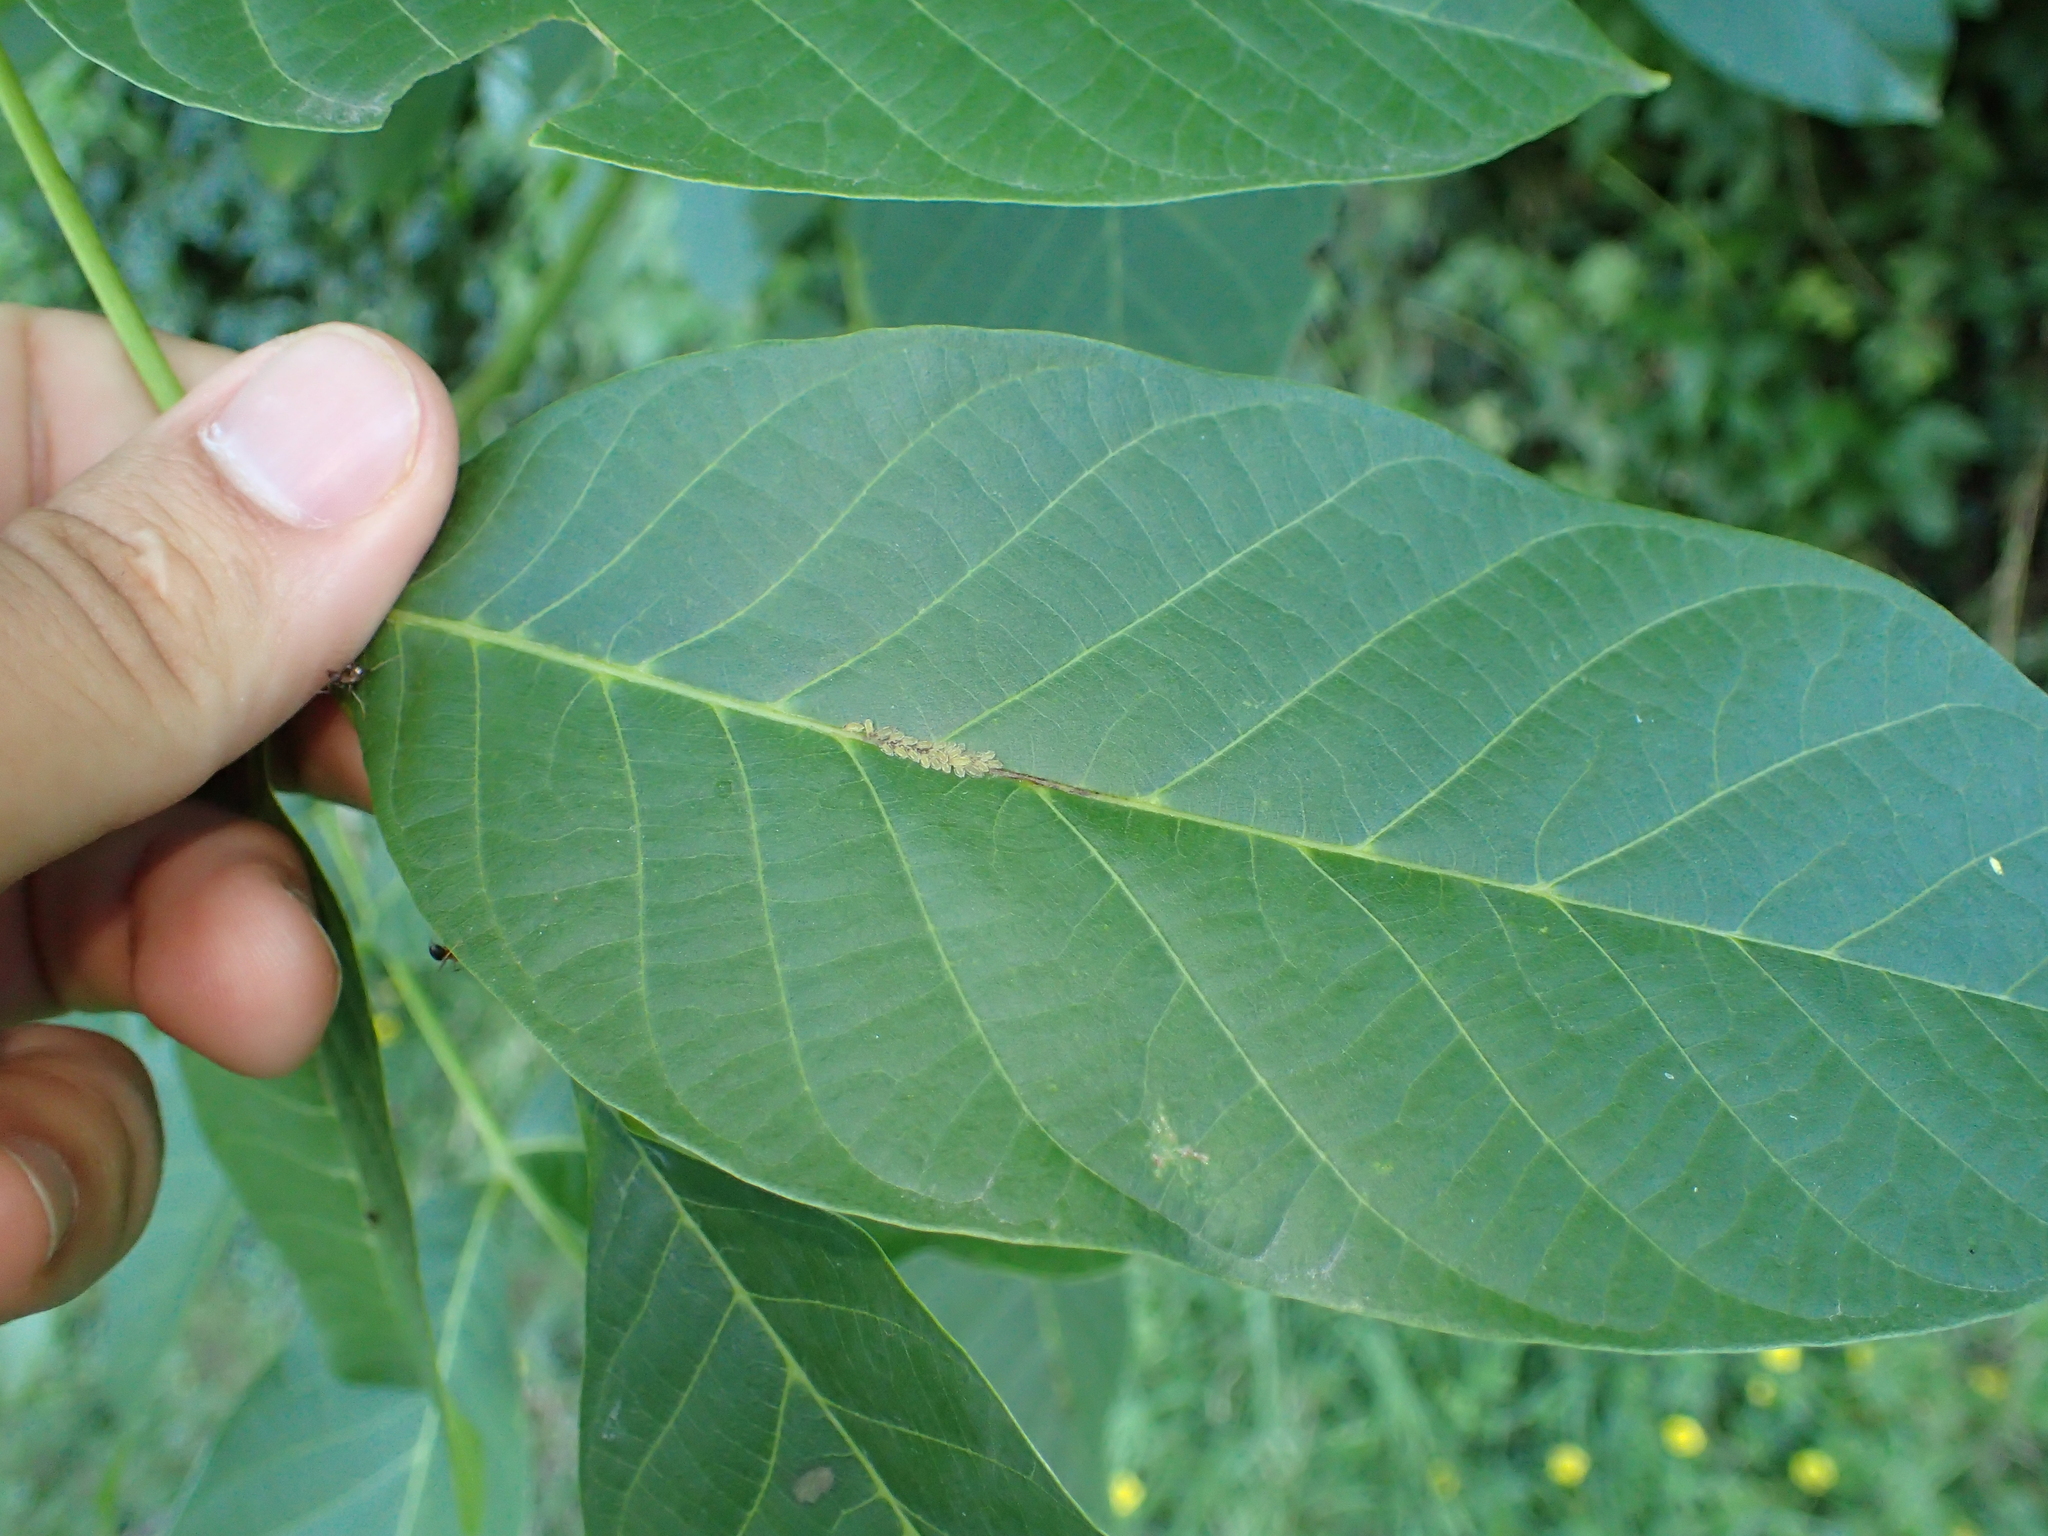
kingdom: Animalia
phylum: Arthropoda
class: Insecta
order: Hemiptera
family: Aphididae
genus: Panaphis
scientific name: Panaphis juglandis
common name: Large walnut aphid
